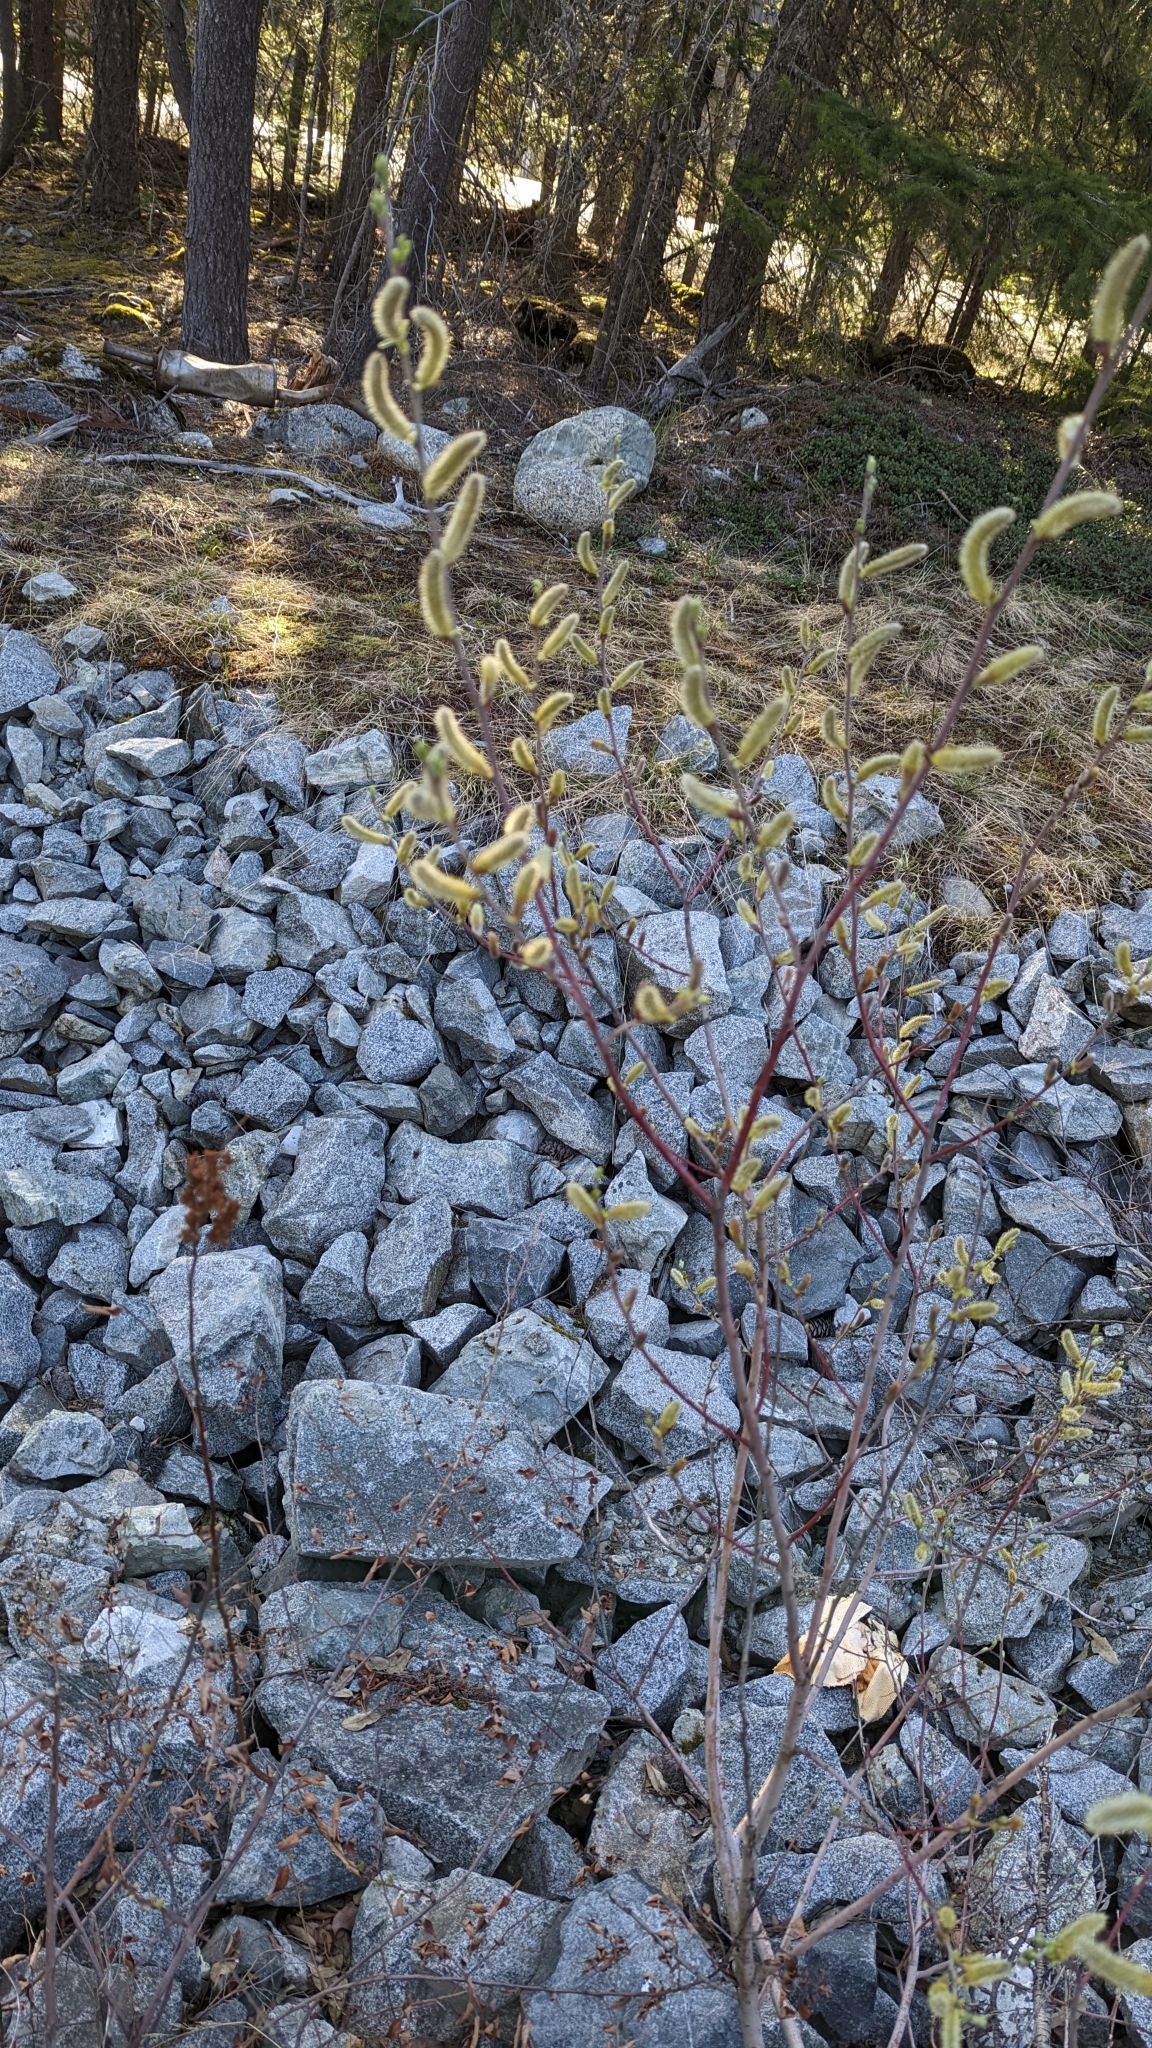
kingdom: Plantae
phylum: Tracheophyta
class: Magnoliopsida
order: Malpighiales
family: Salicaceae
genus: Salix
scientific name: Salix sitchensis
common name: Sitka willow
